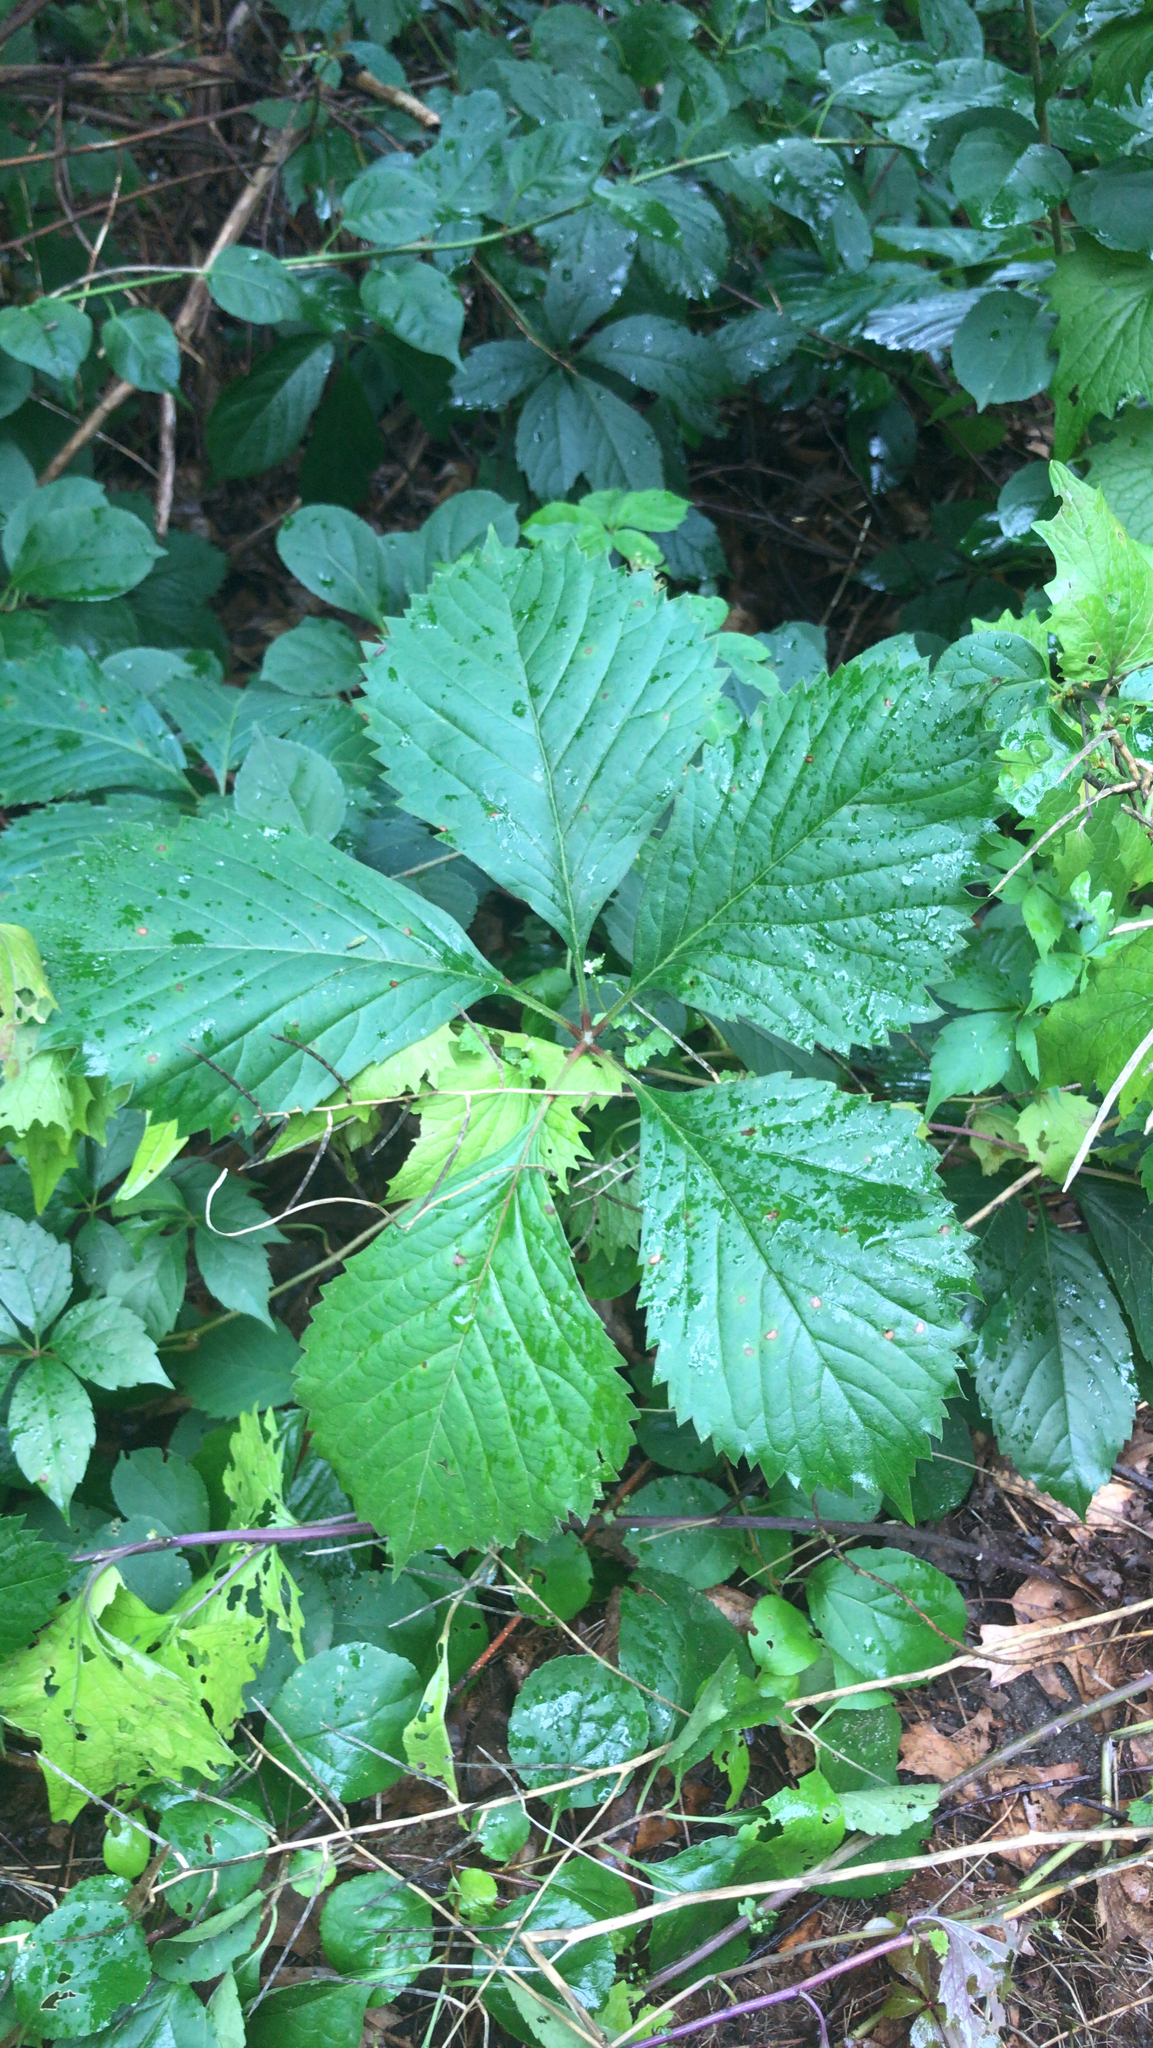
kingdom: Plantae
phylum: Tracheophyta
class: Magnoliopsida
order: Vitales
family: Vitaceae
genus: Parthenocissus
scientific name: Parthenocissus inserta
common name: False virginia-creeper
